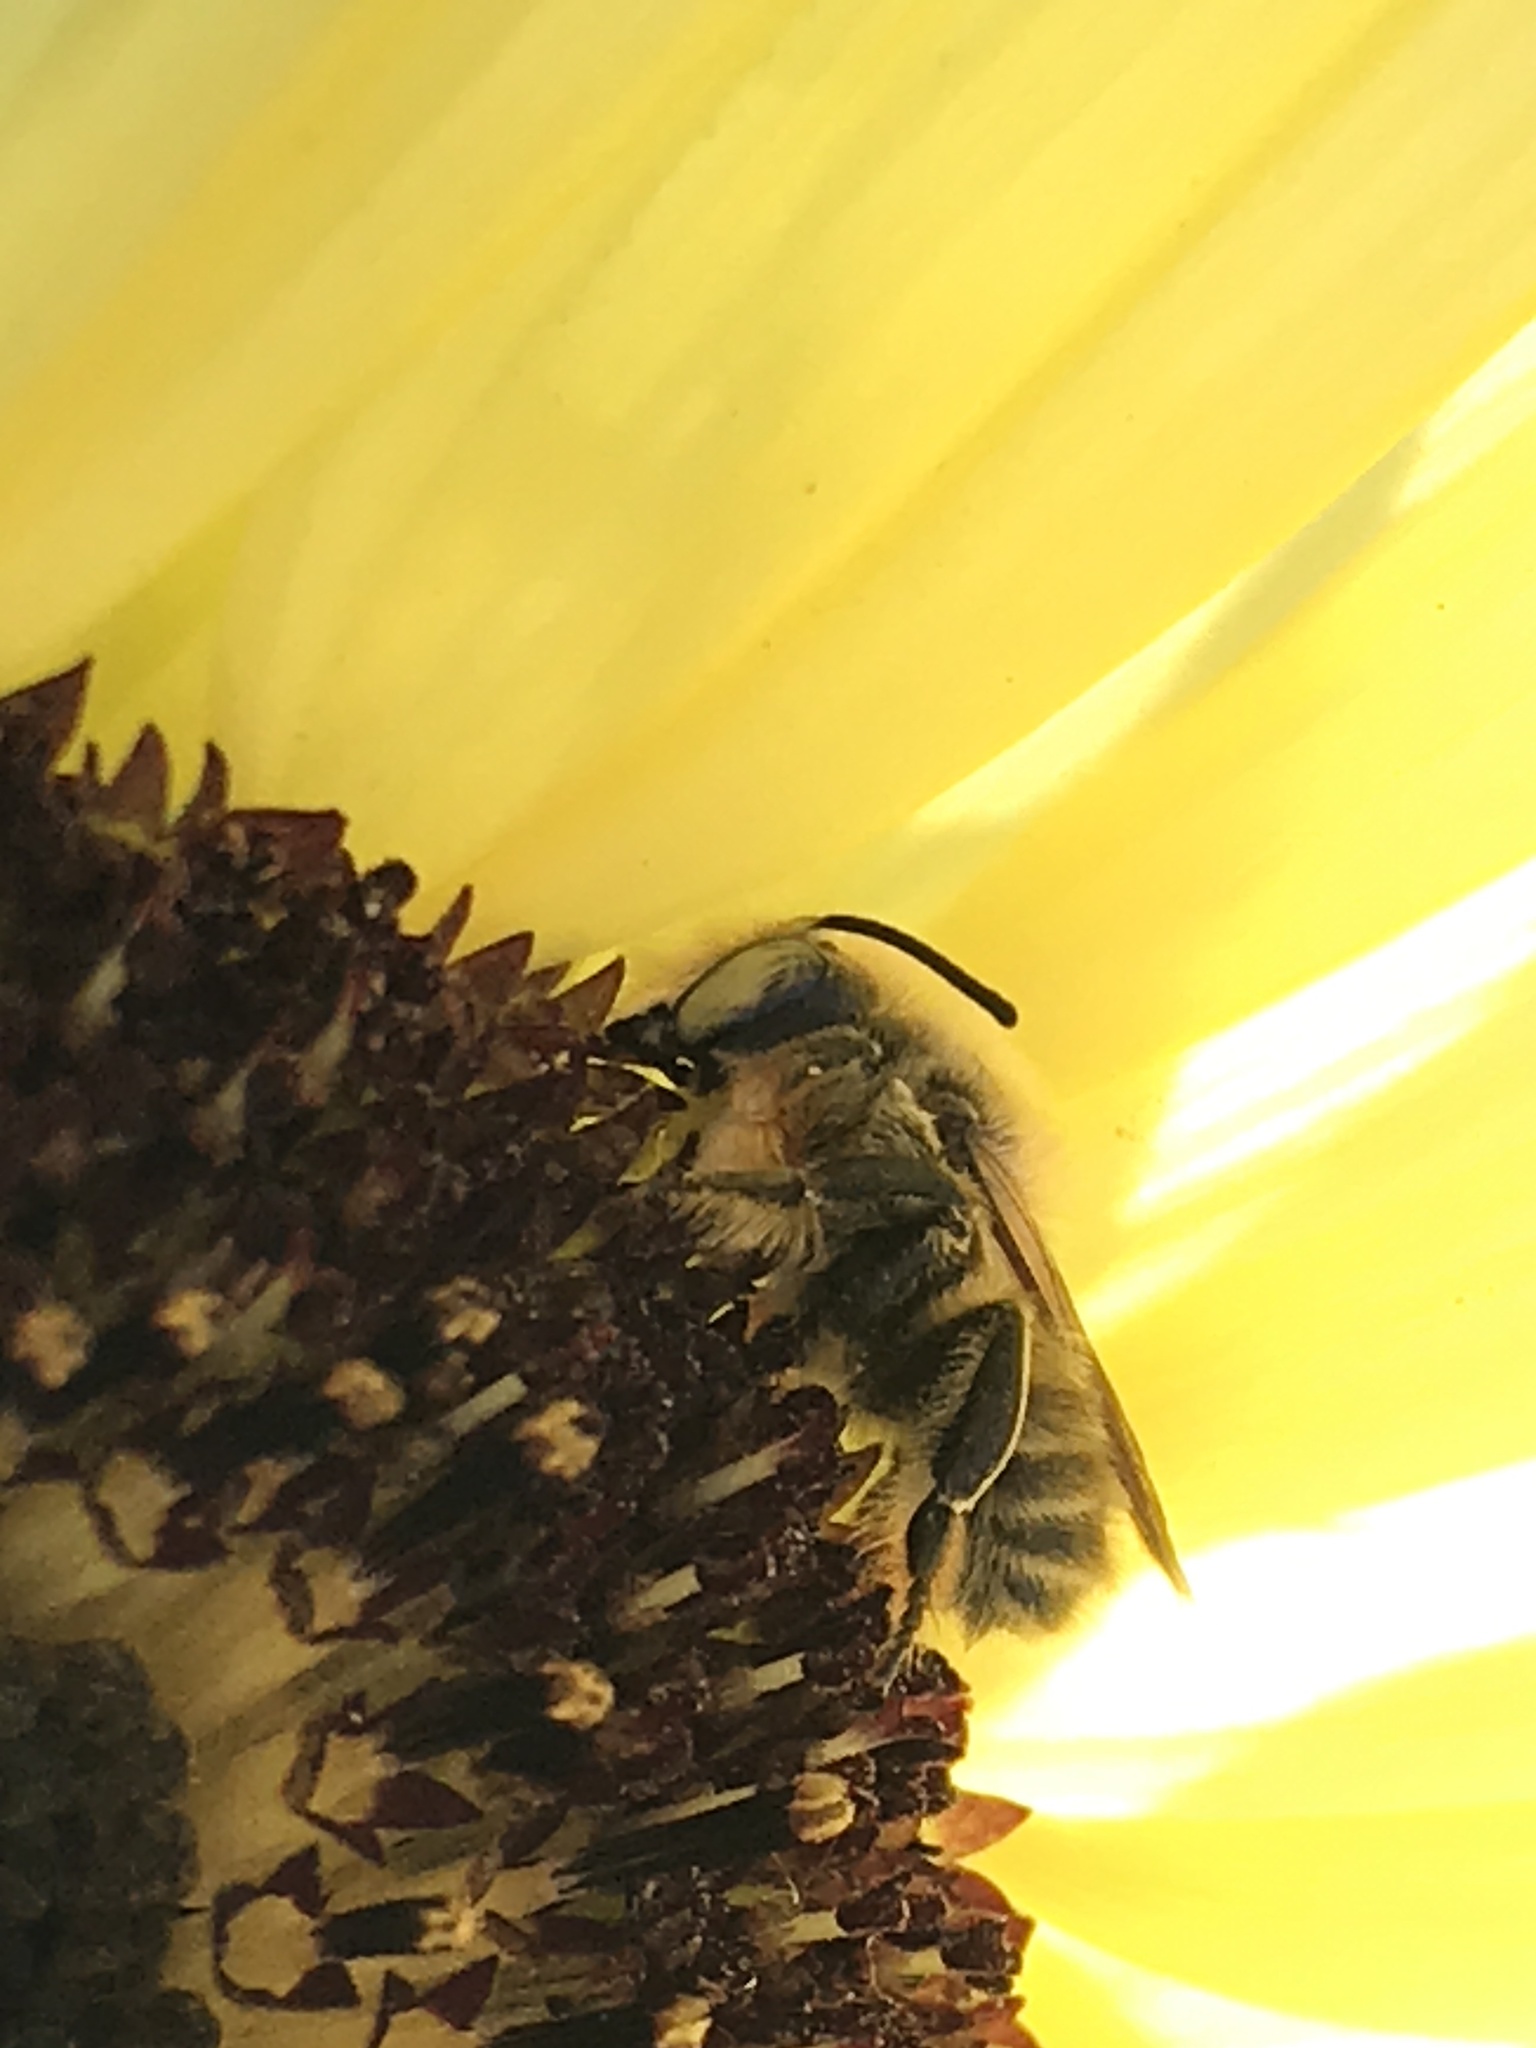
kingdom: Animalia
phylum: Arthropoda
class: Insecta
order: Hymenoptera
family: Megachilidae
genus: Megachile
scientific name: Megachile perihirta
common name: Western leafcutter
